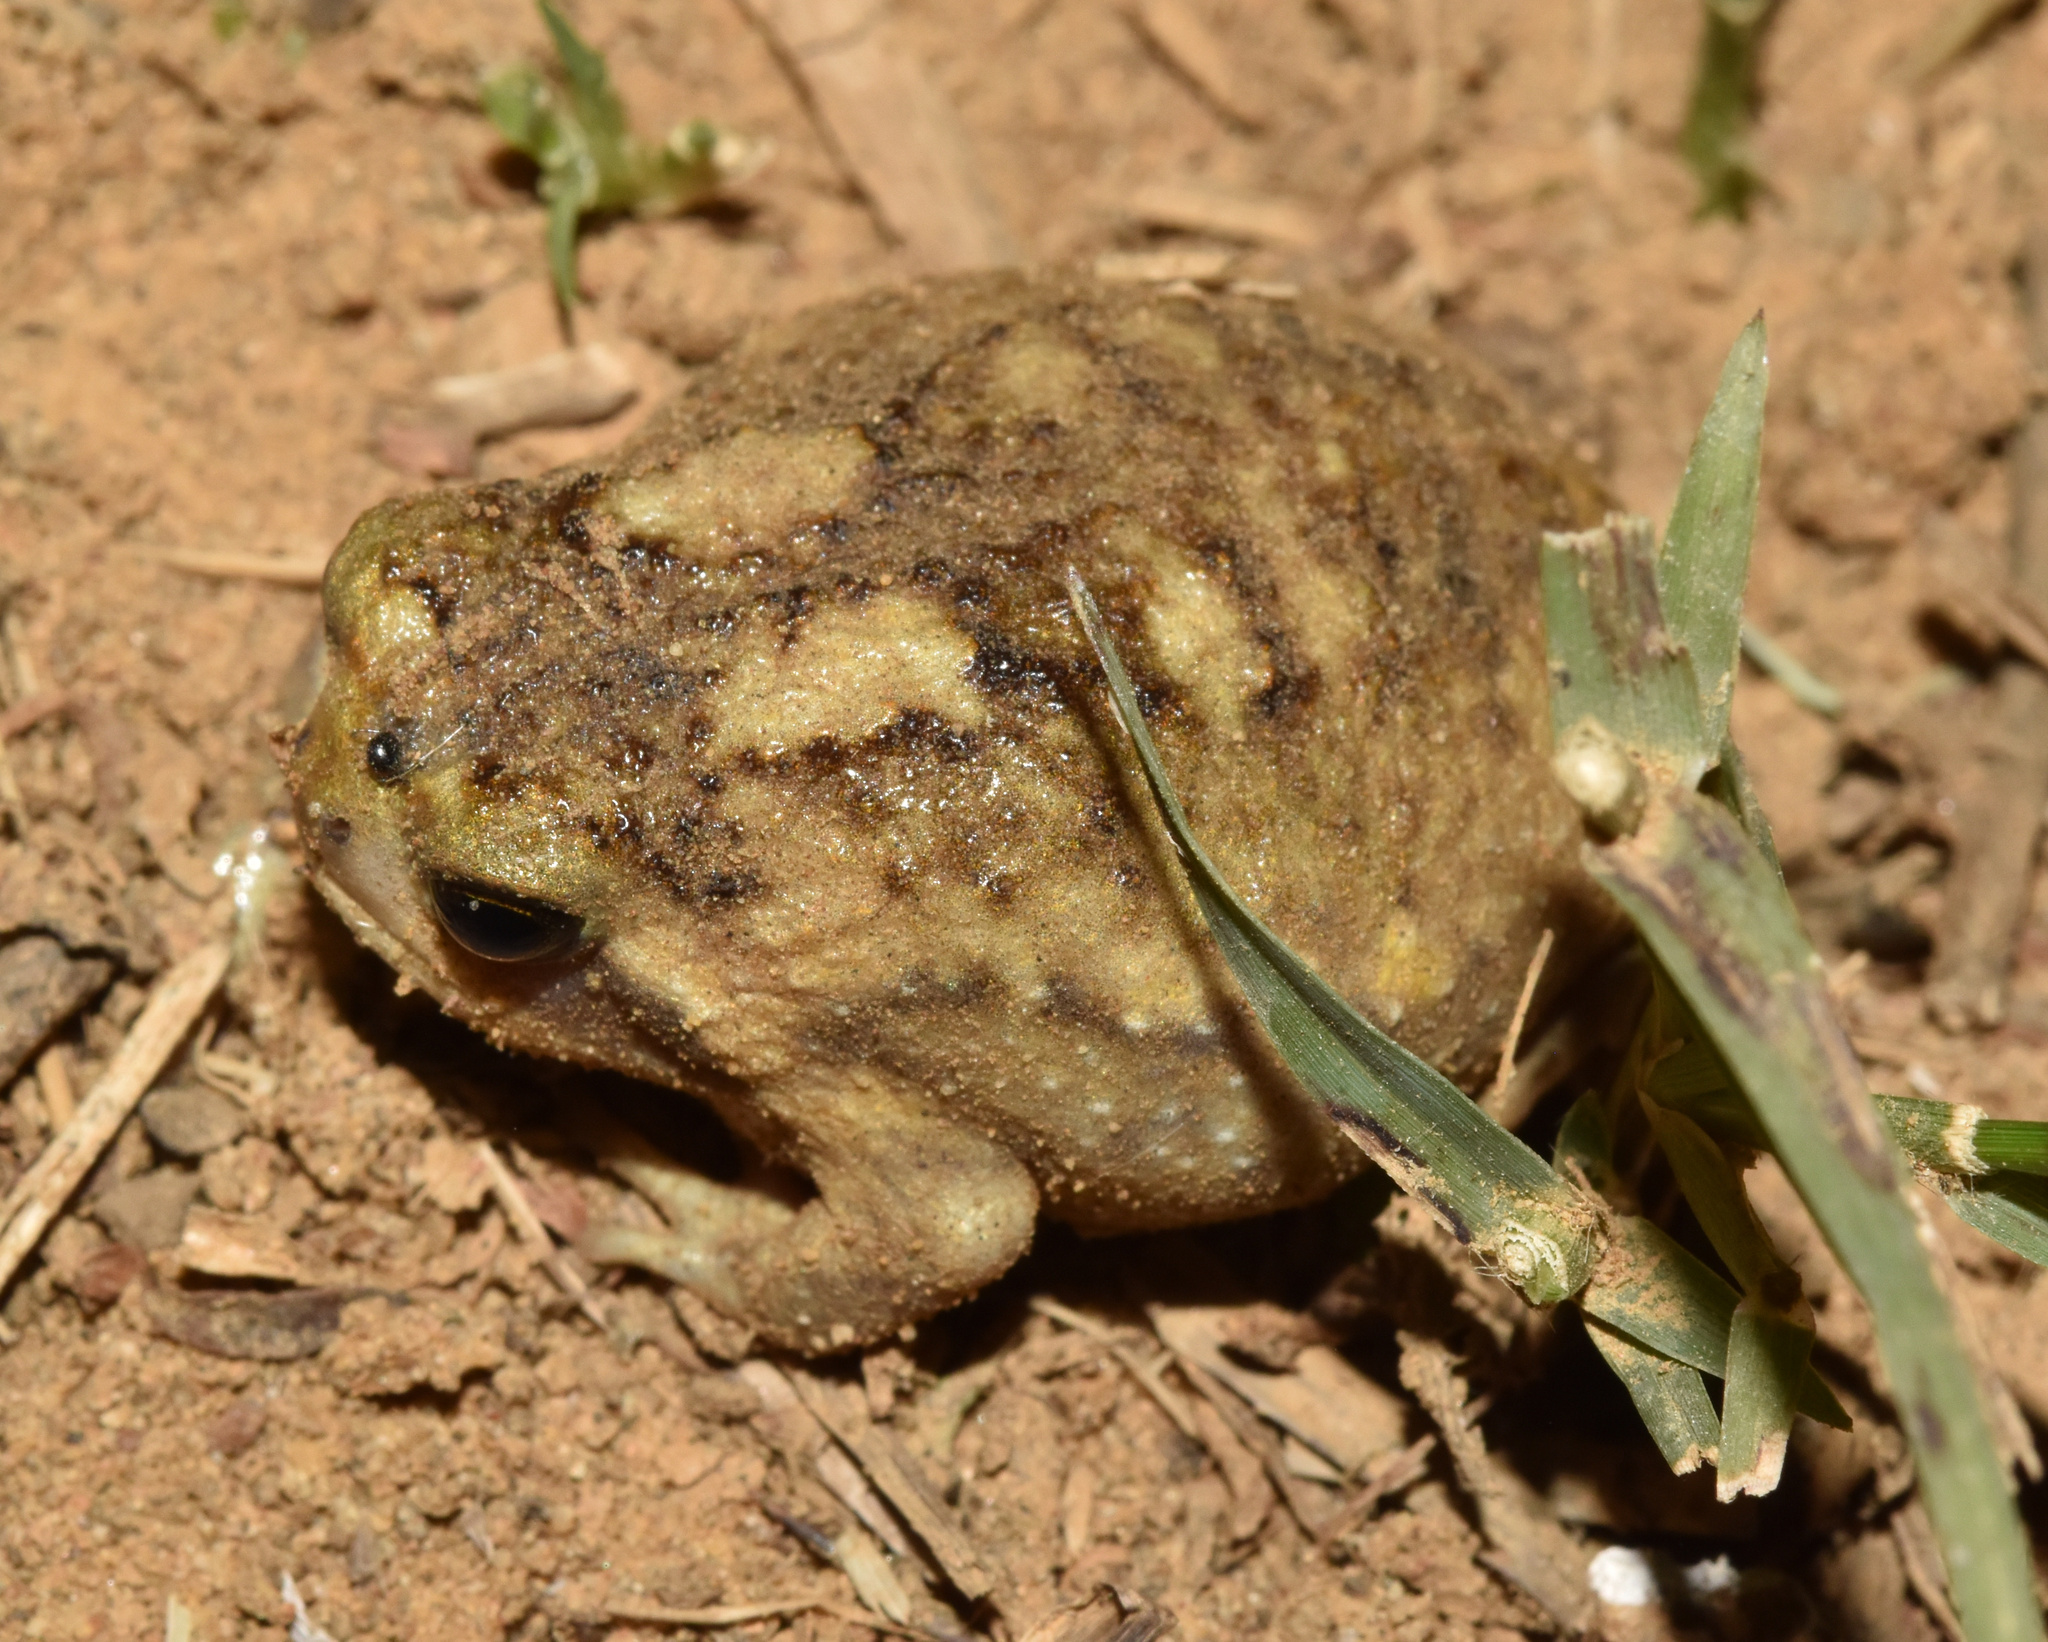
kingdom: Animalia
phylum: Chordata
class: Amphibia
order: Anura
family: Brevicipitidae
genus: Breviceps
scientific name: Breviceps adspersus
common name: Common rain frog
